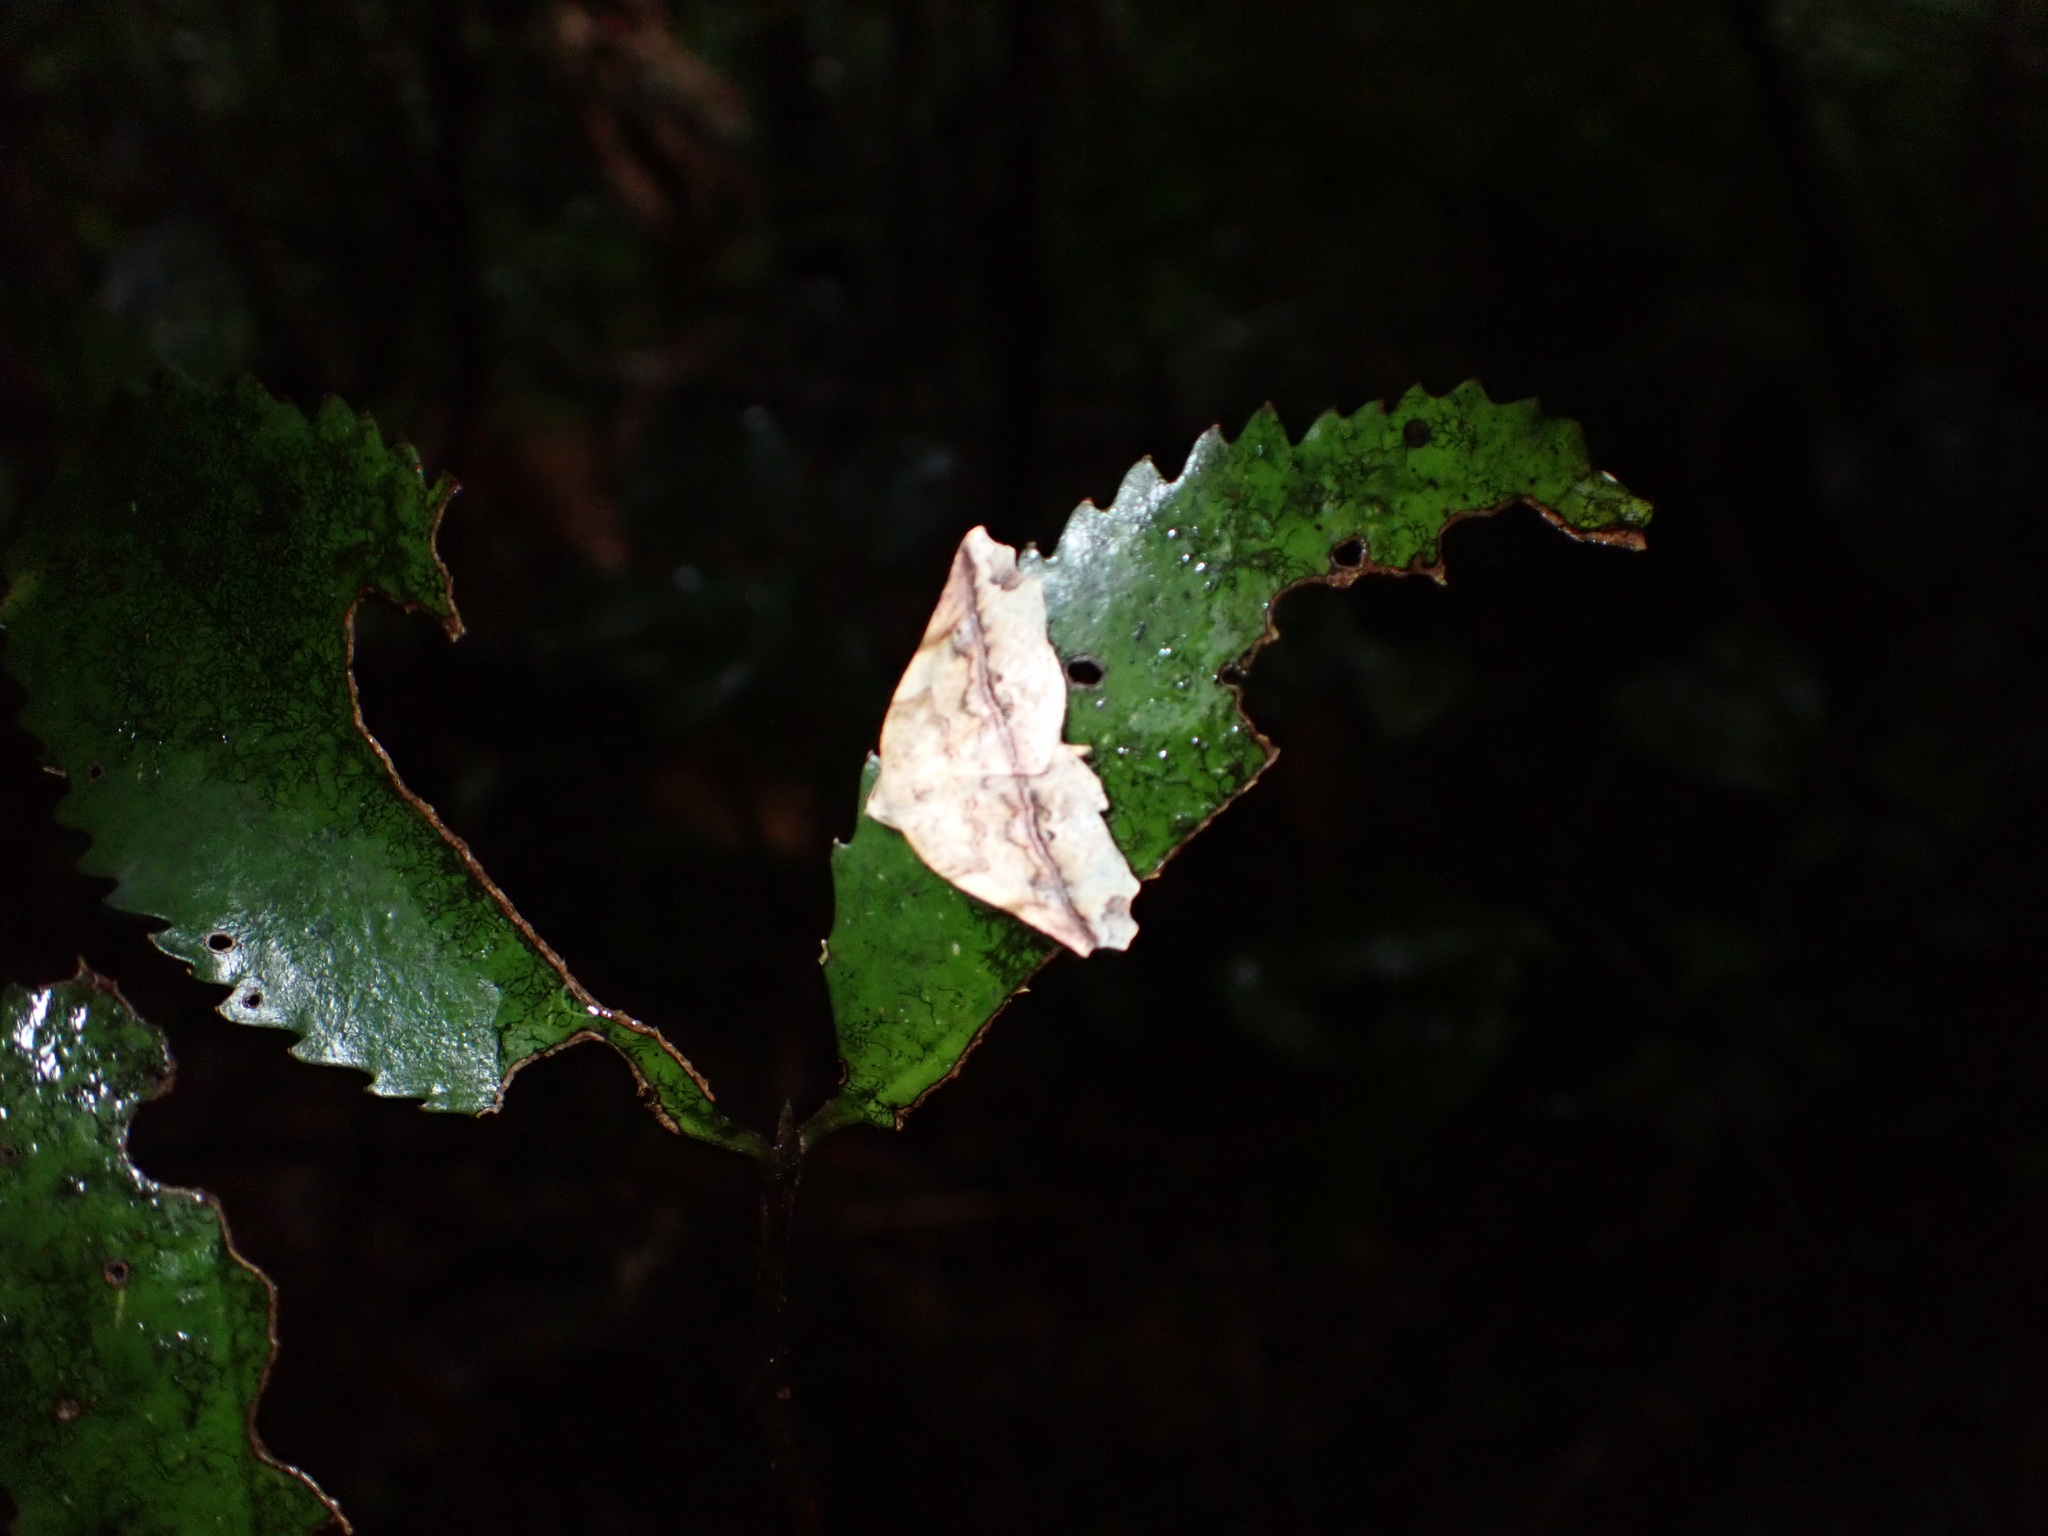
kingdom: Animalia
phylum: Arthropoda
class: Insecta
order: Lepidoptera
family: Geometridae
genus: Ischalis
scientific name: Ischalis gallaria
